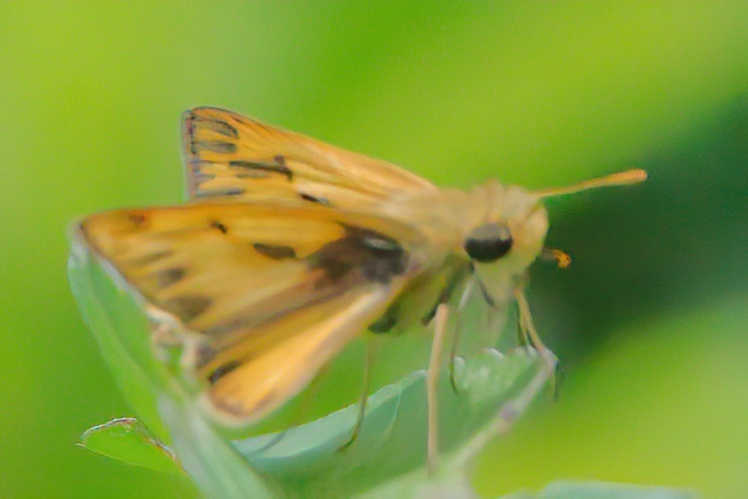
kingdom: Animalia
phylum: Arthropoda
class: Insecta
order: Lepidoptera
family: Hesperiidae
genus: Hylephila
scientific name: Hylephila phyleus
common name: Fiery skipper
